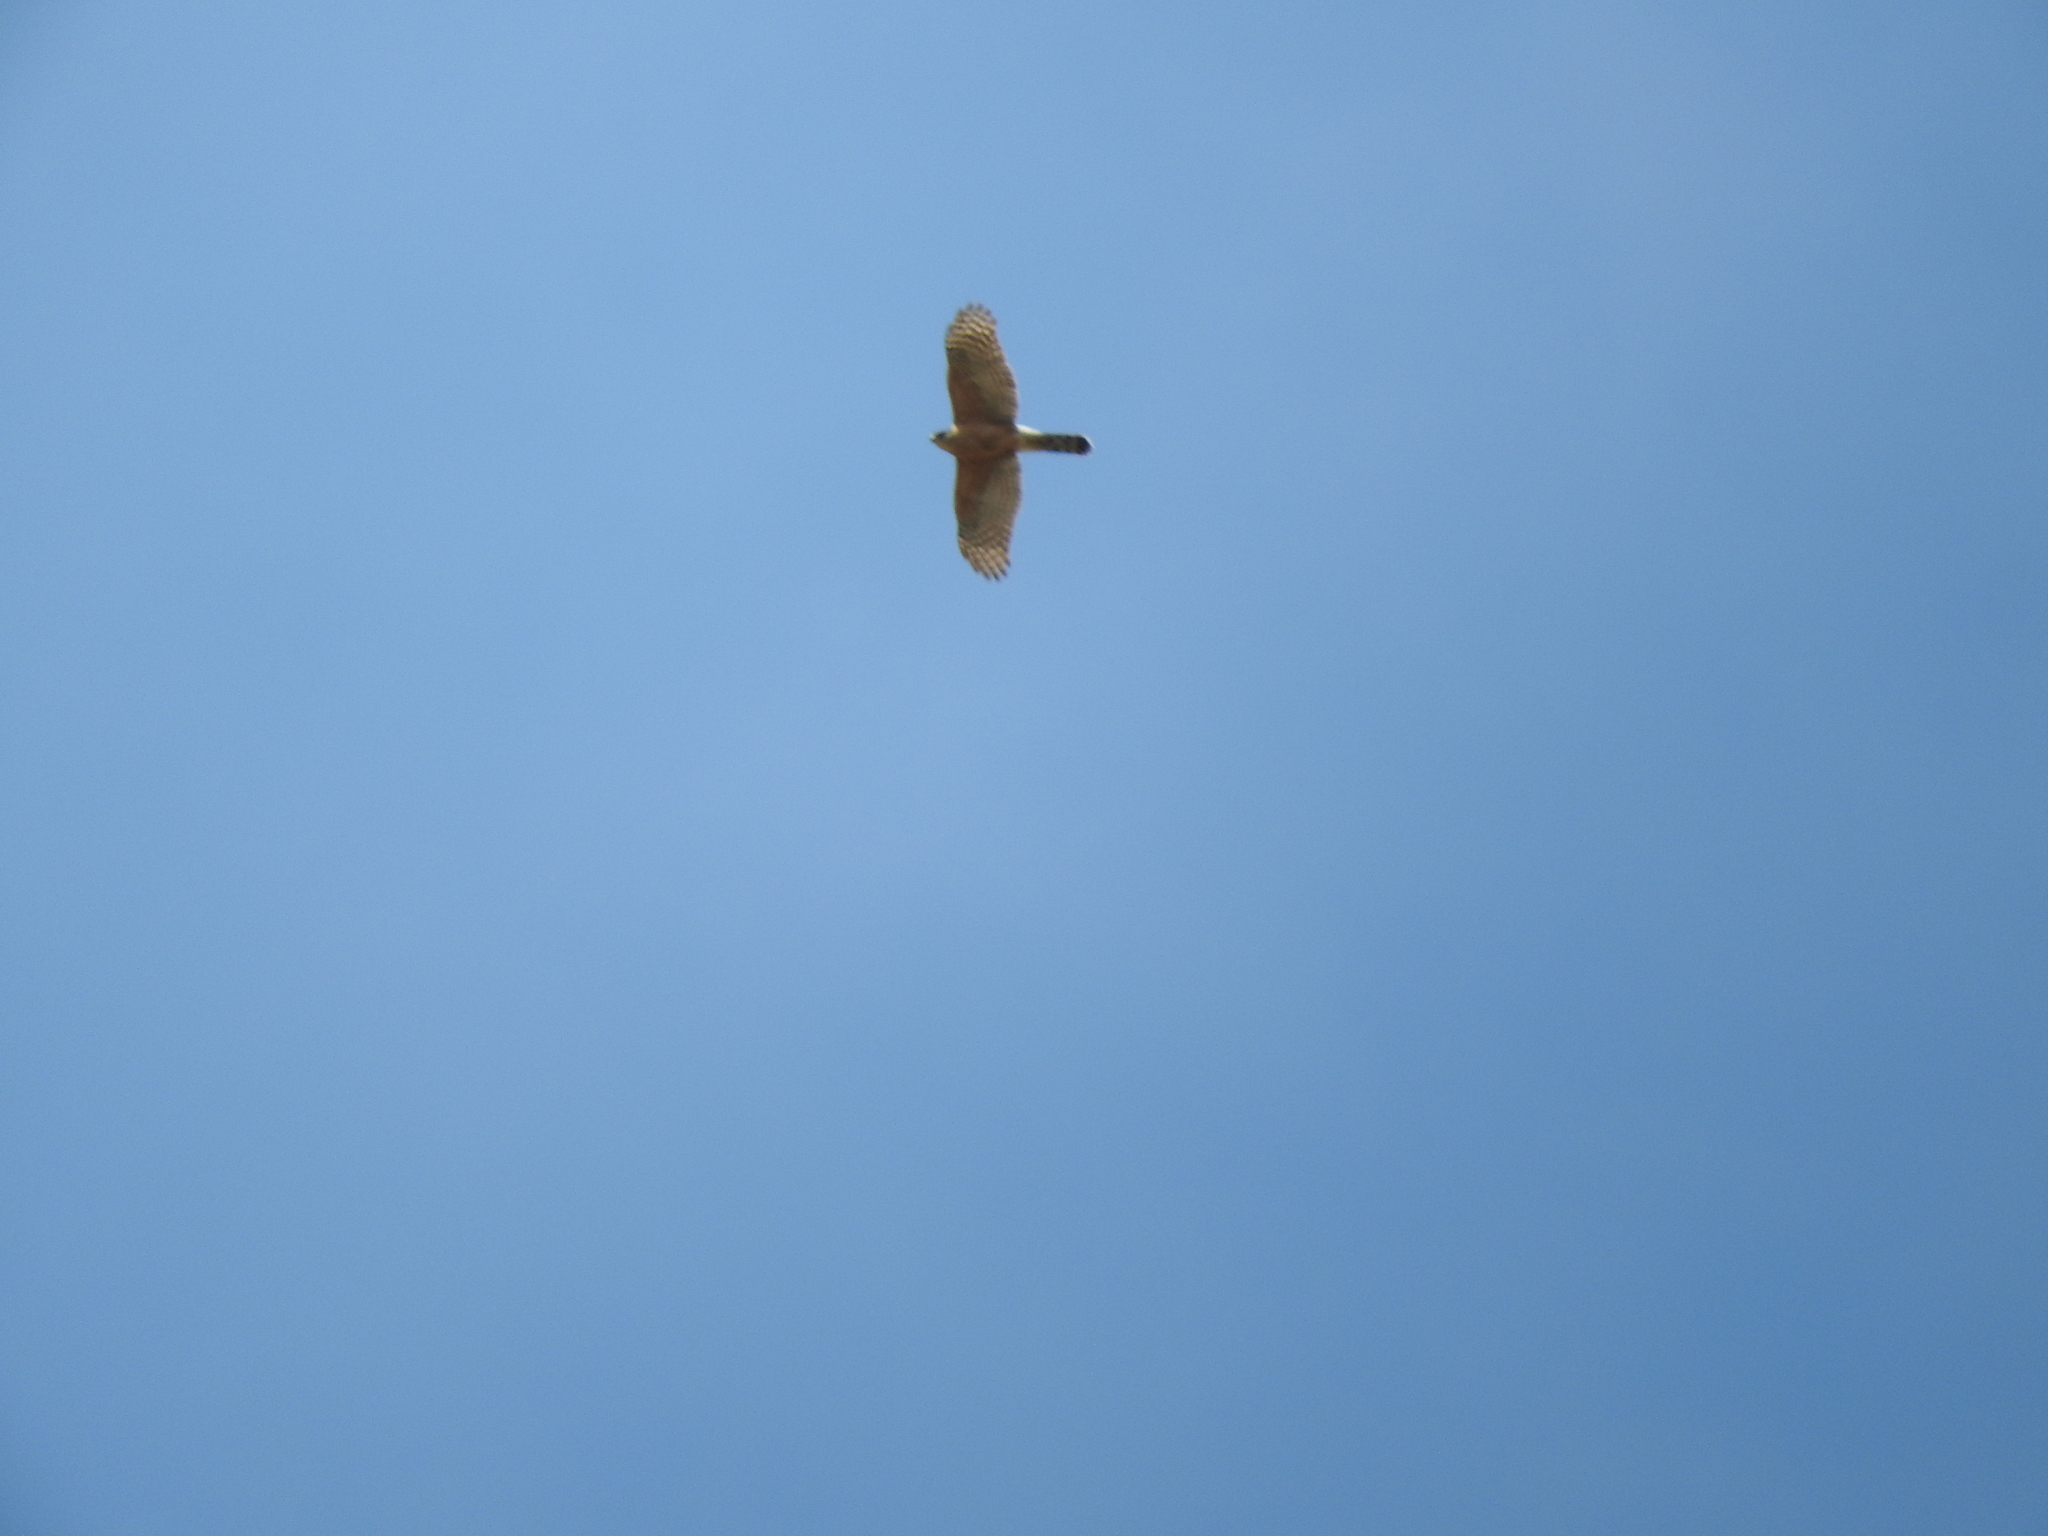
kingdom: Animalia
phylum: Chordata
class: Aves
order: Accipitriformes
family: Accipitridae
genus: Accipiter
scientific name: Accipiter cooperii
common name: Cooper's hawk
